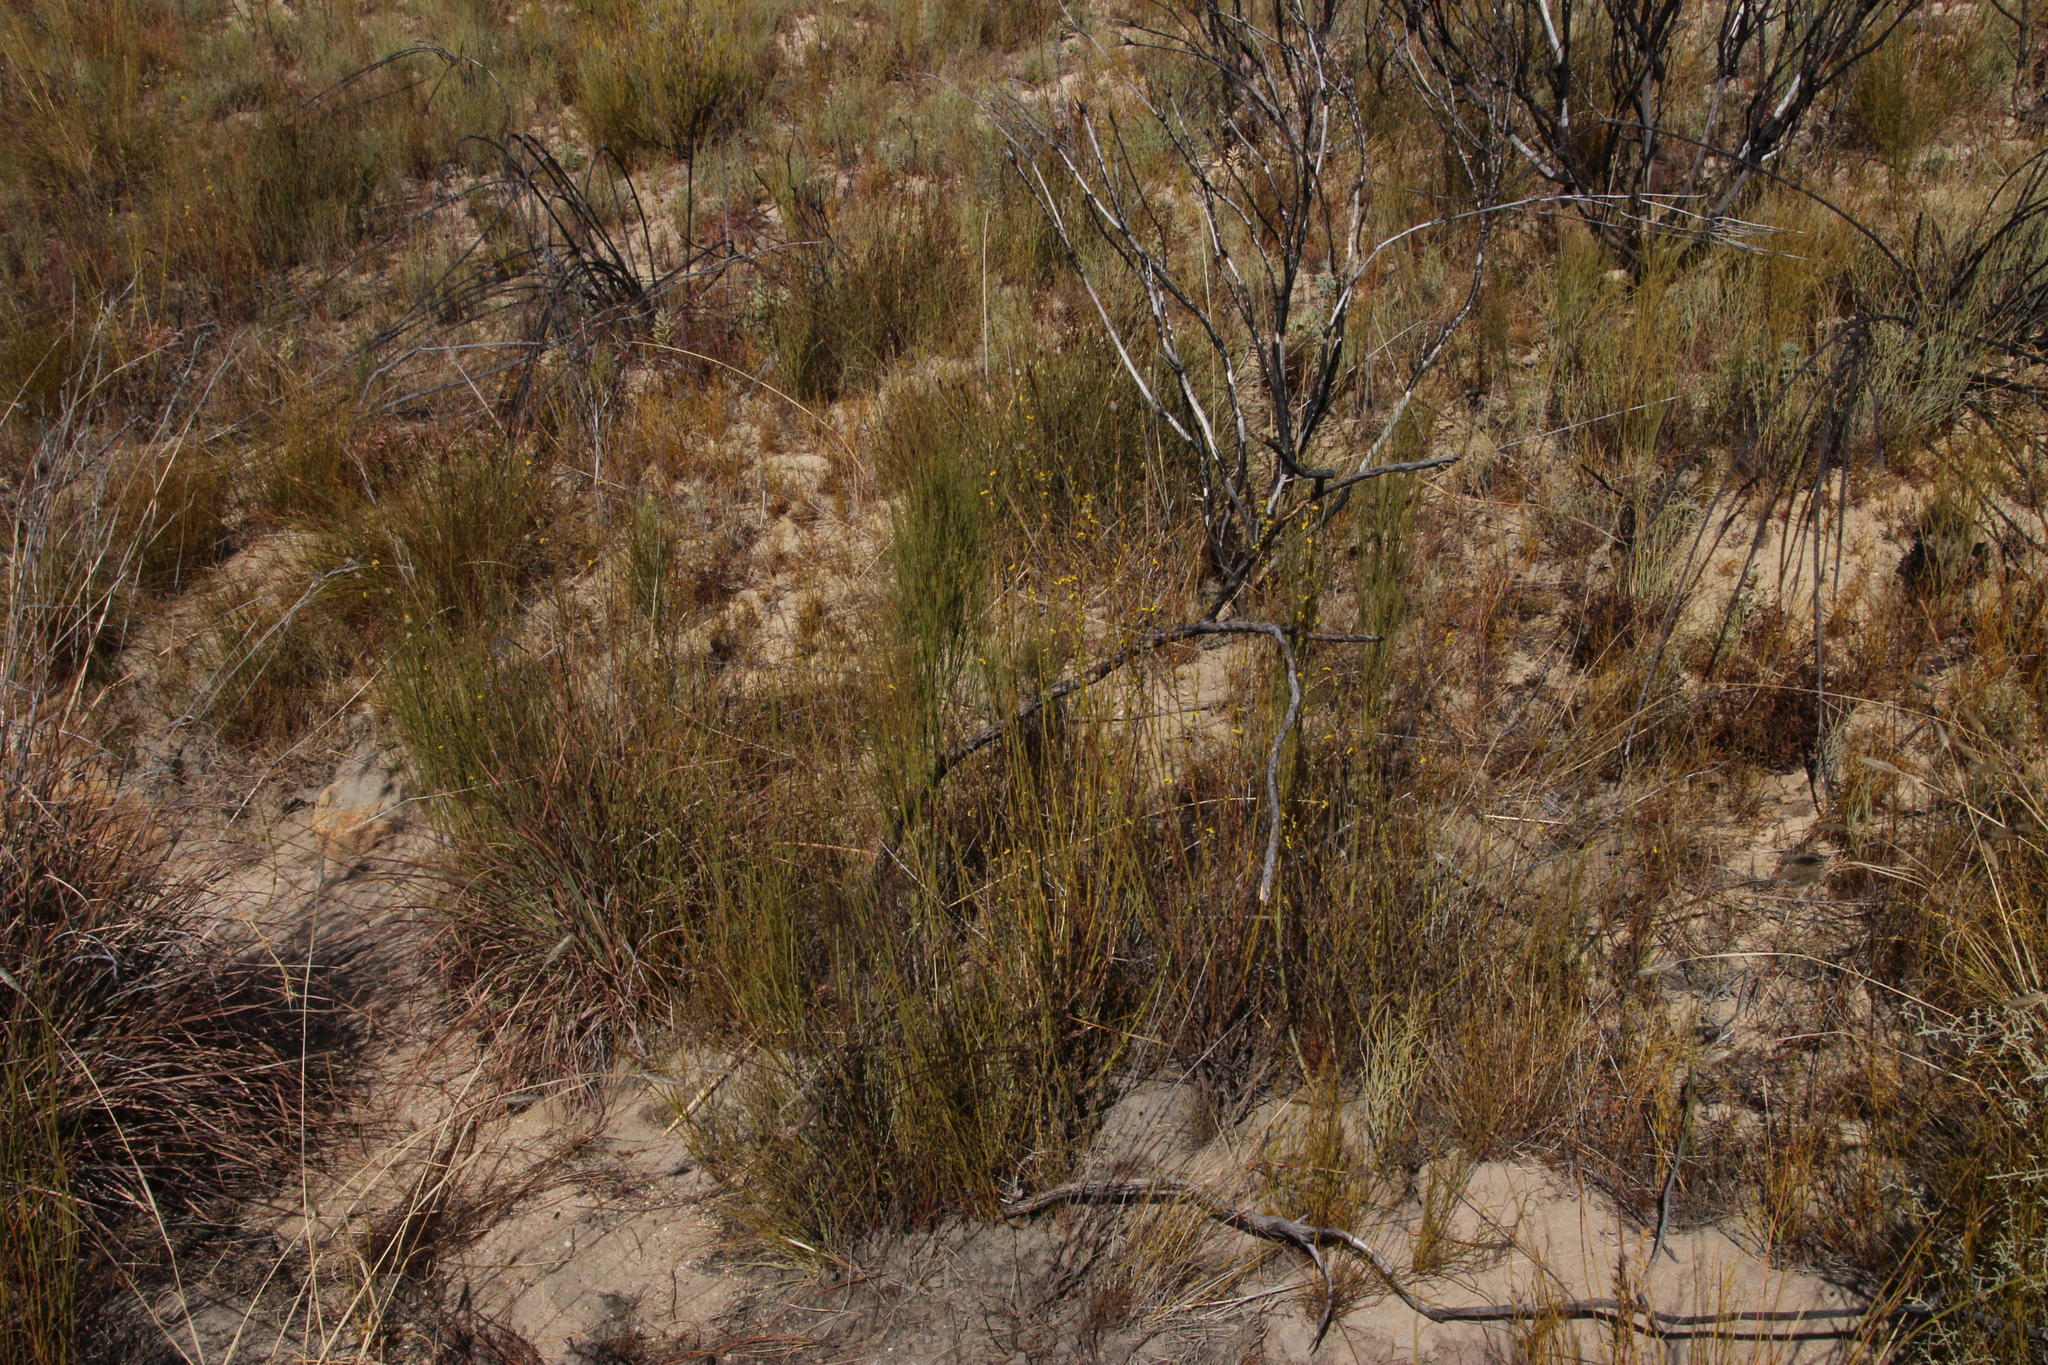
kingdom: Plantae
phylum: Tracheophyta
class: Magnoliopsida
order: Asterales
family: Asteraceae
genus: Senecio
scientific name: Senecio pubigerus
